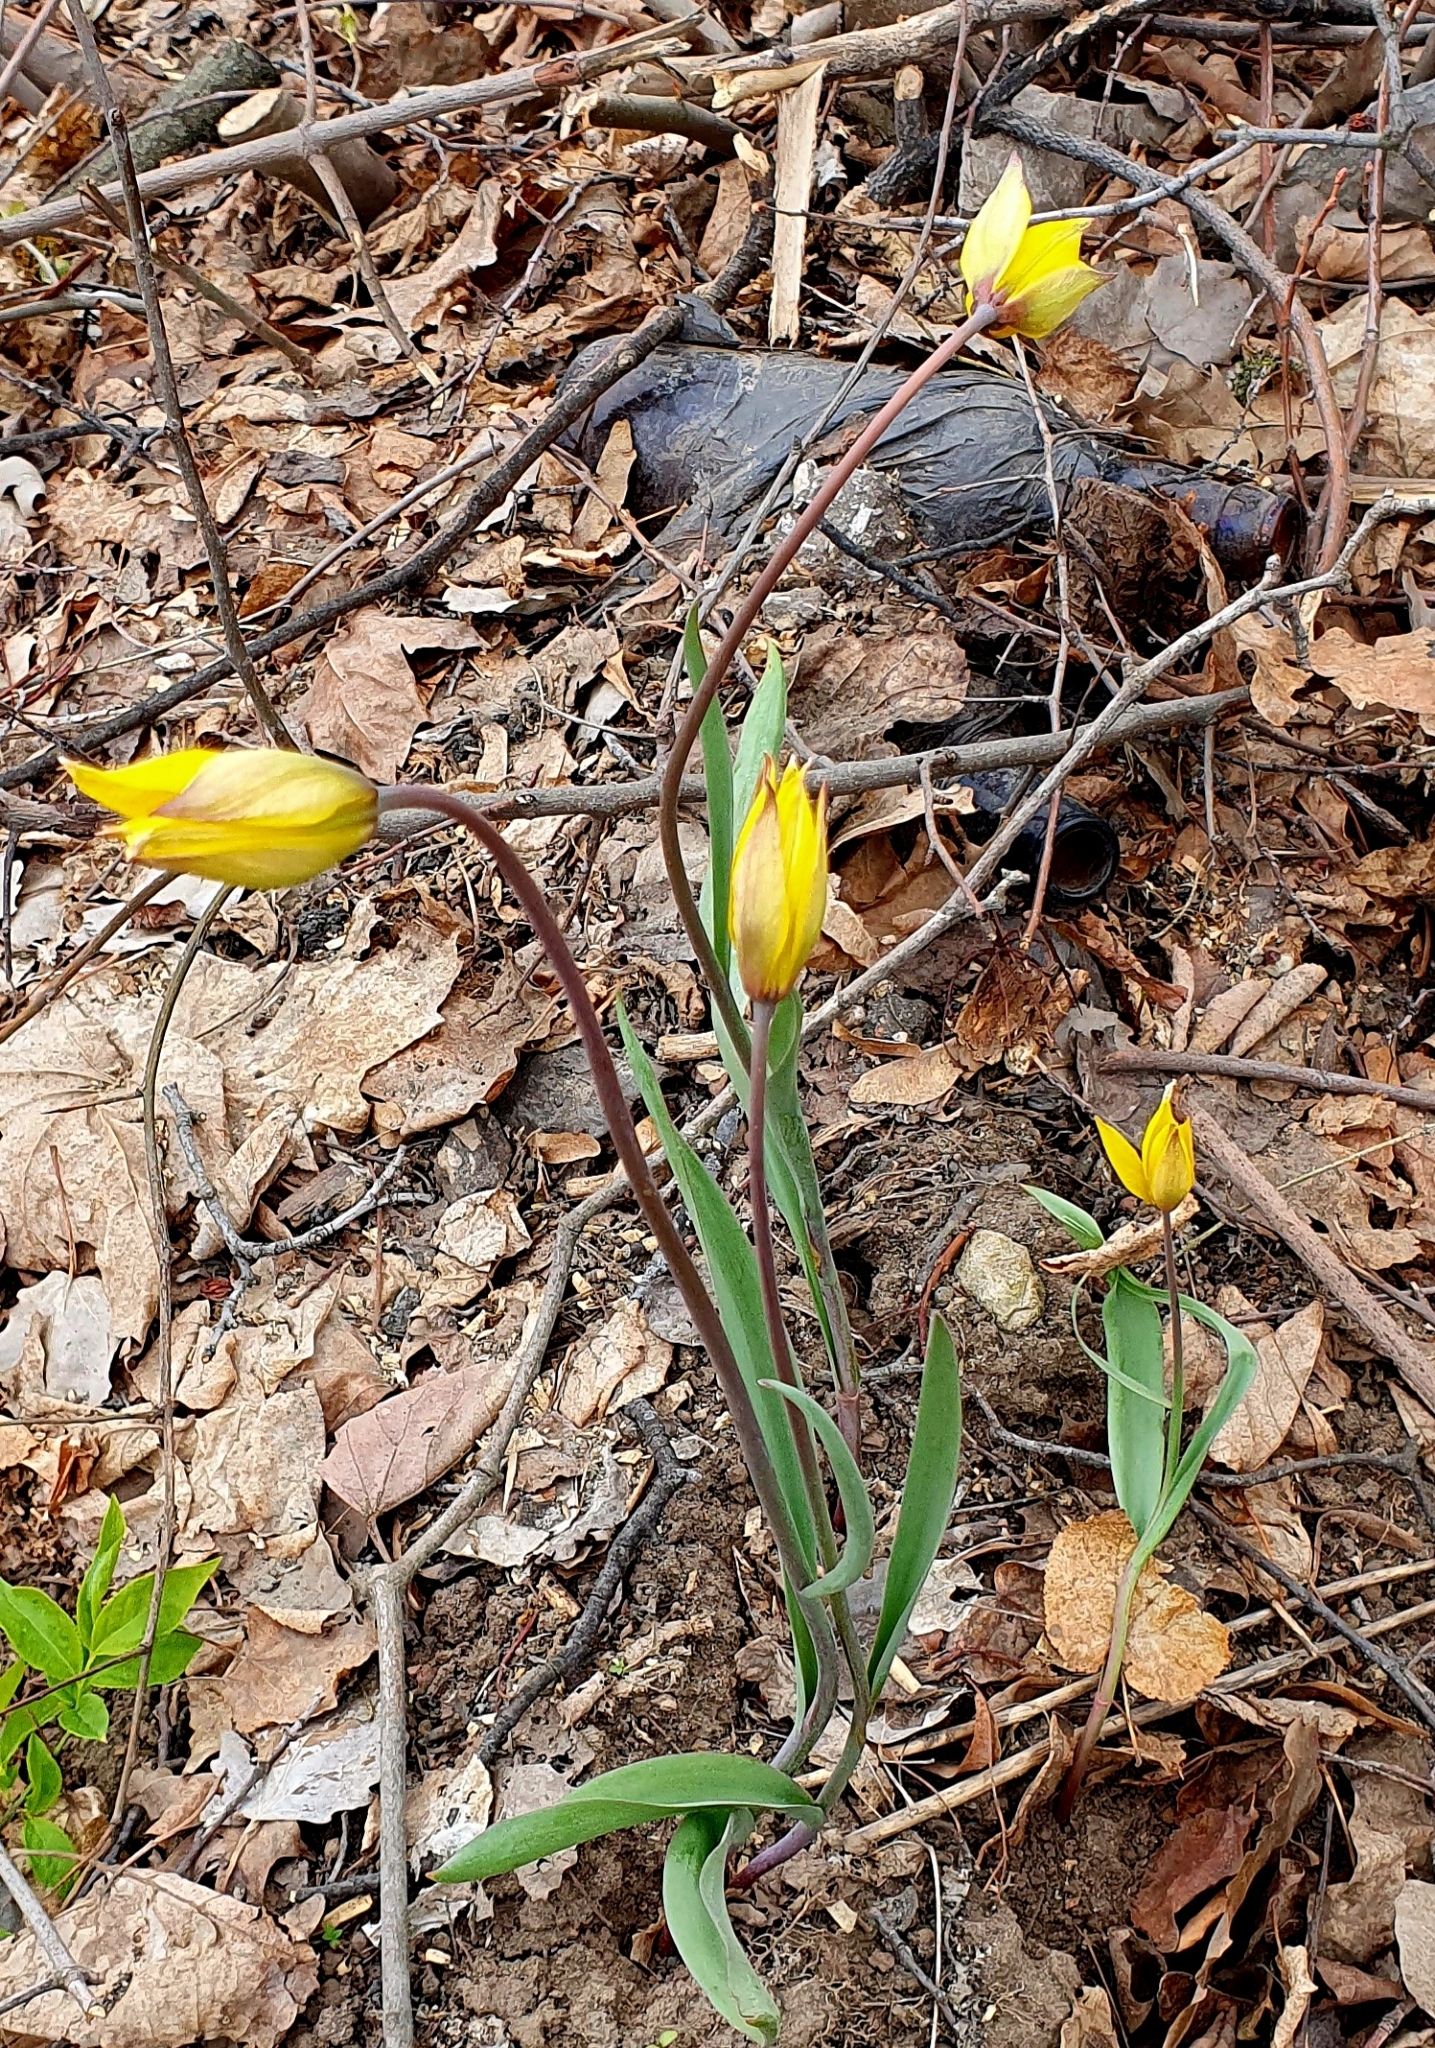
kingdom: Plantae
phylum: Tracheophyta
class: Liliopsida
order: Liliales
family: Liliaceae
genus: Tulipa
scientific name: Tulipa sylvestris
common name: Wild tulip
